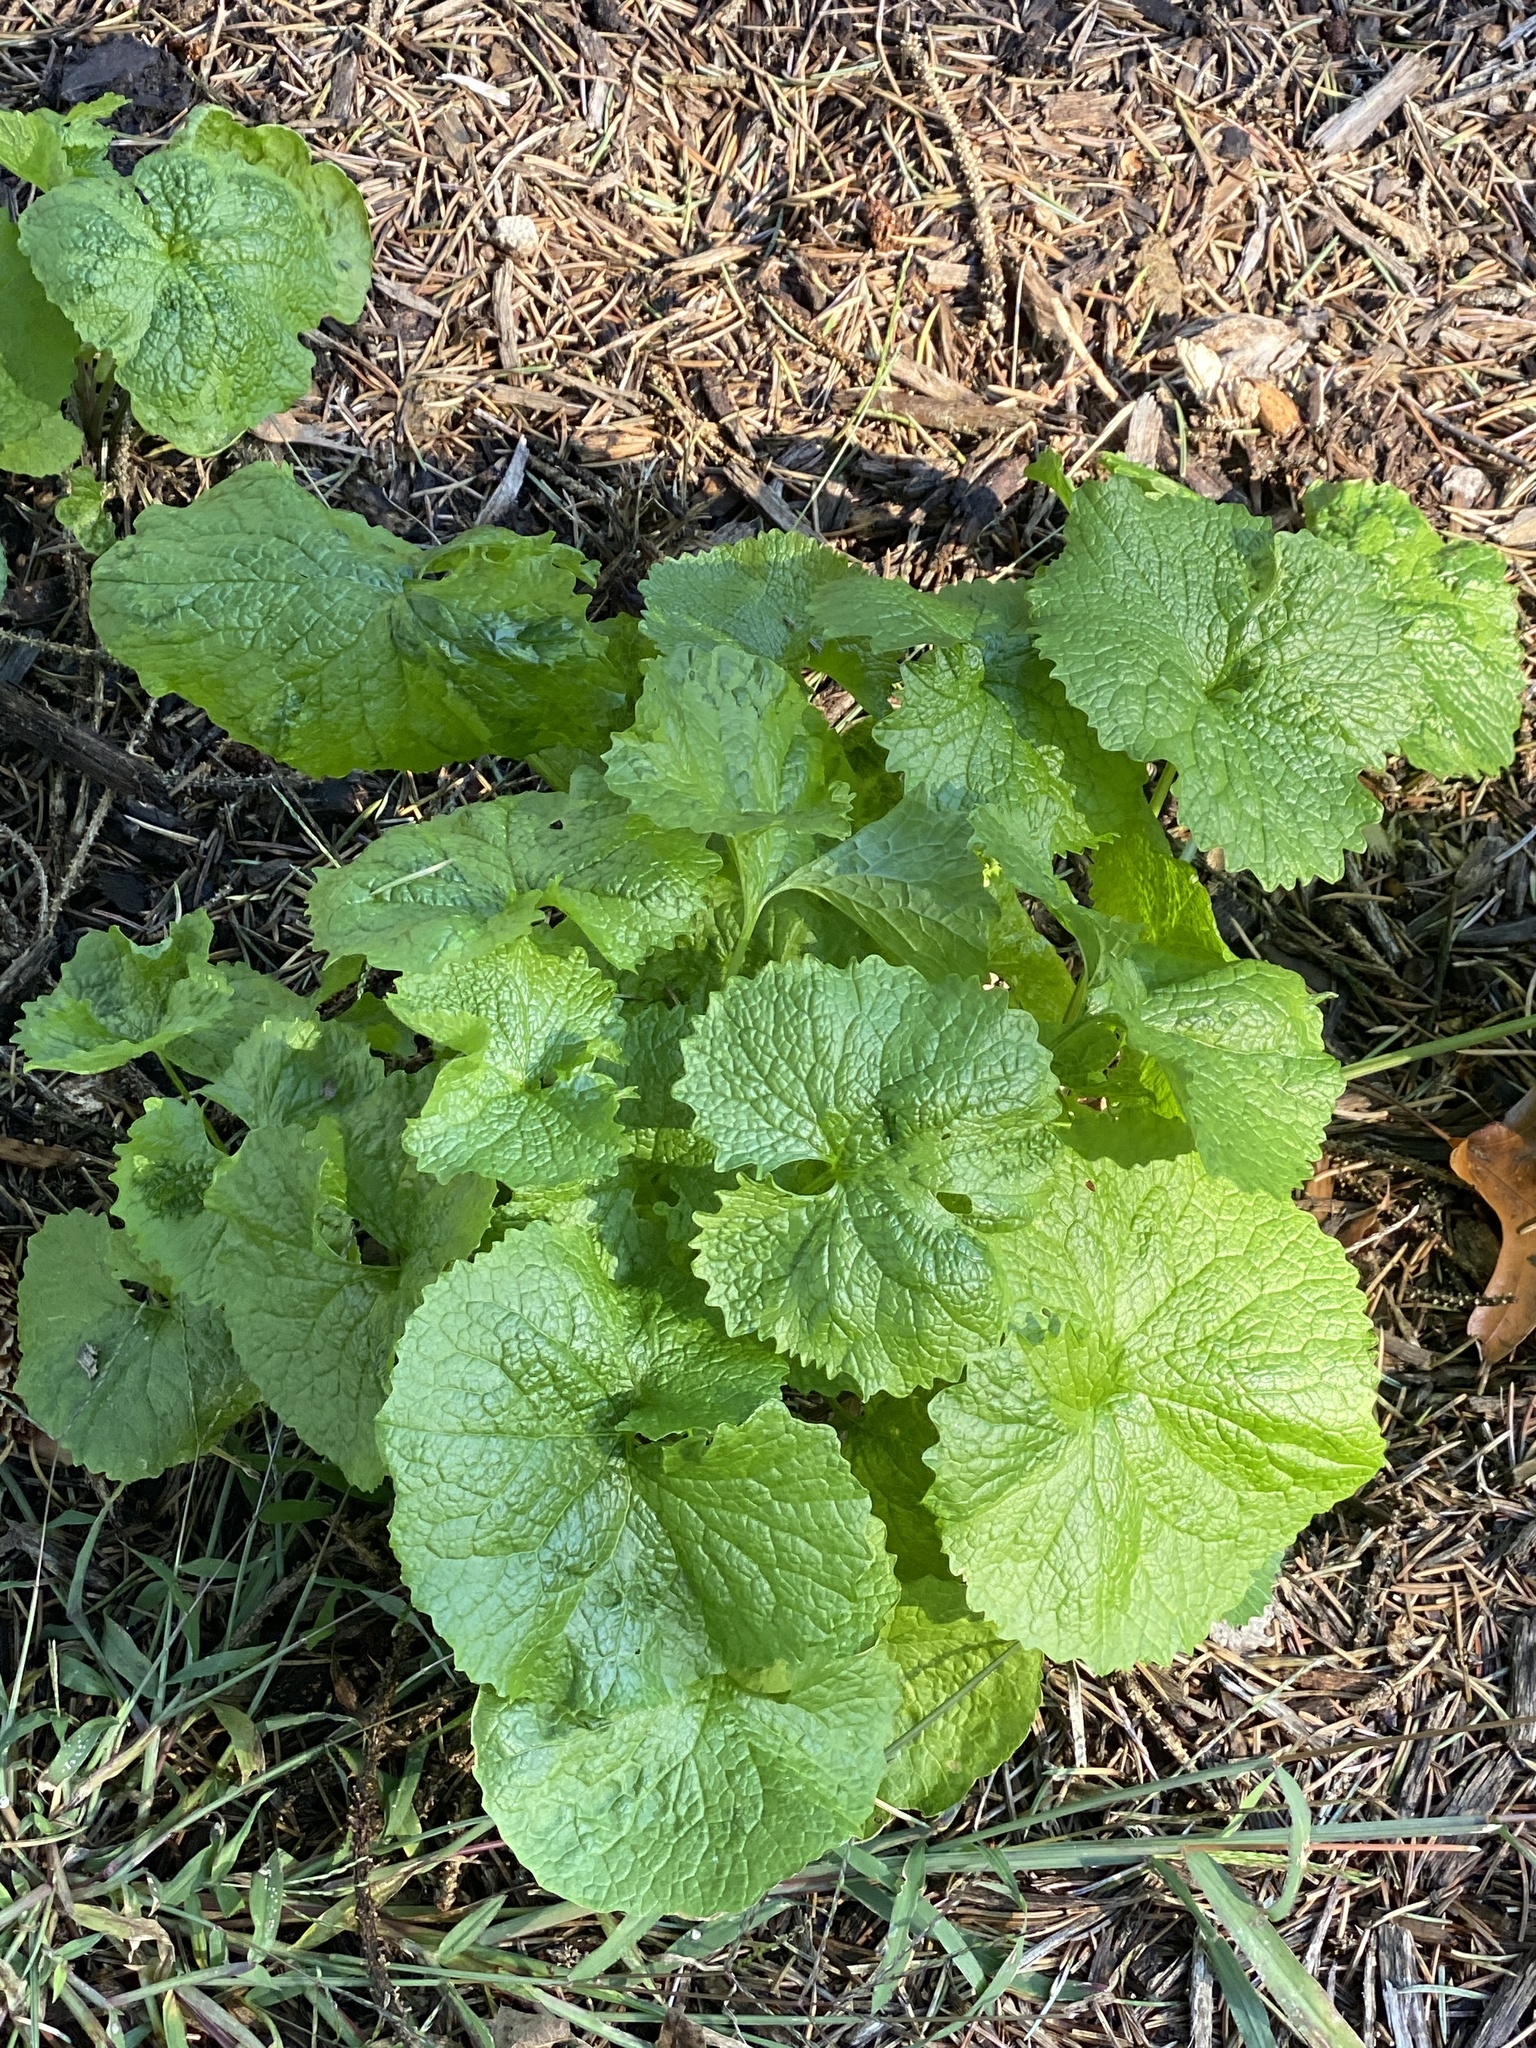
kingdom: Plantae
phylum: Tracheophyta
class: Magnoliopsida
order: Brassicales
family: Brassicaceae
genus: Alliaria
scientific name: Alliaria petiolata
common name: Garlic mustard
